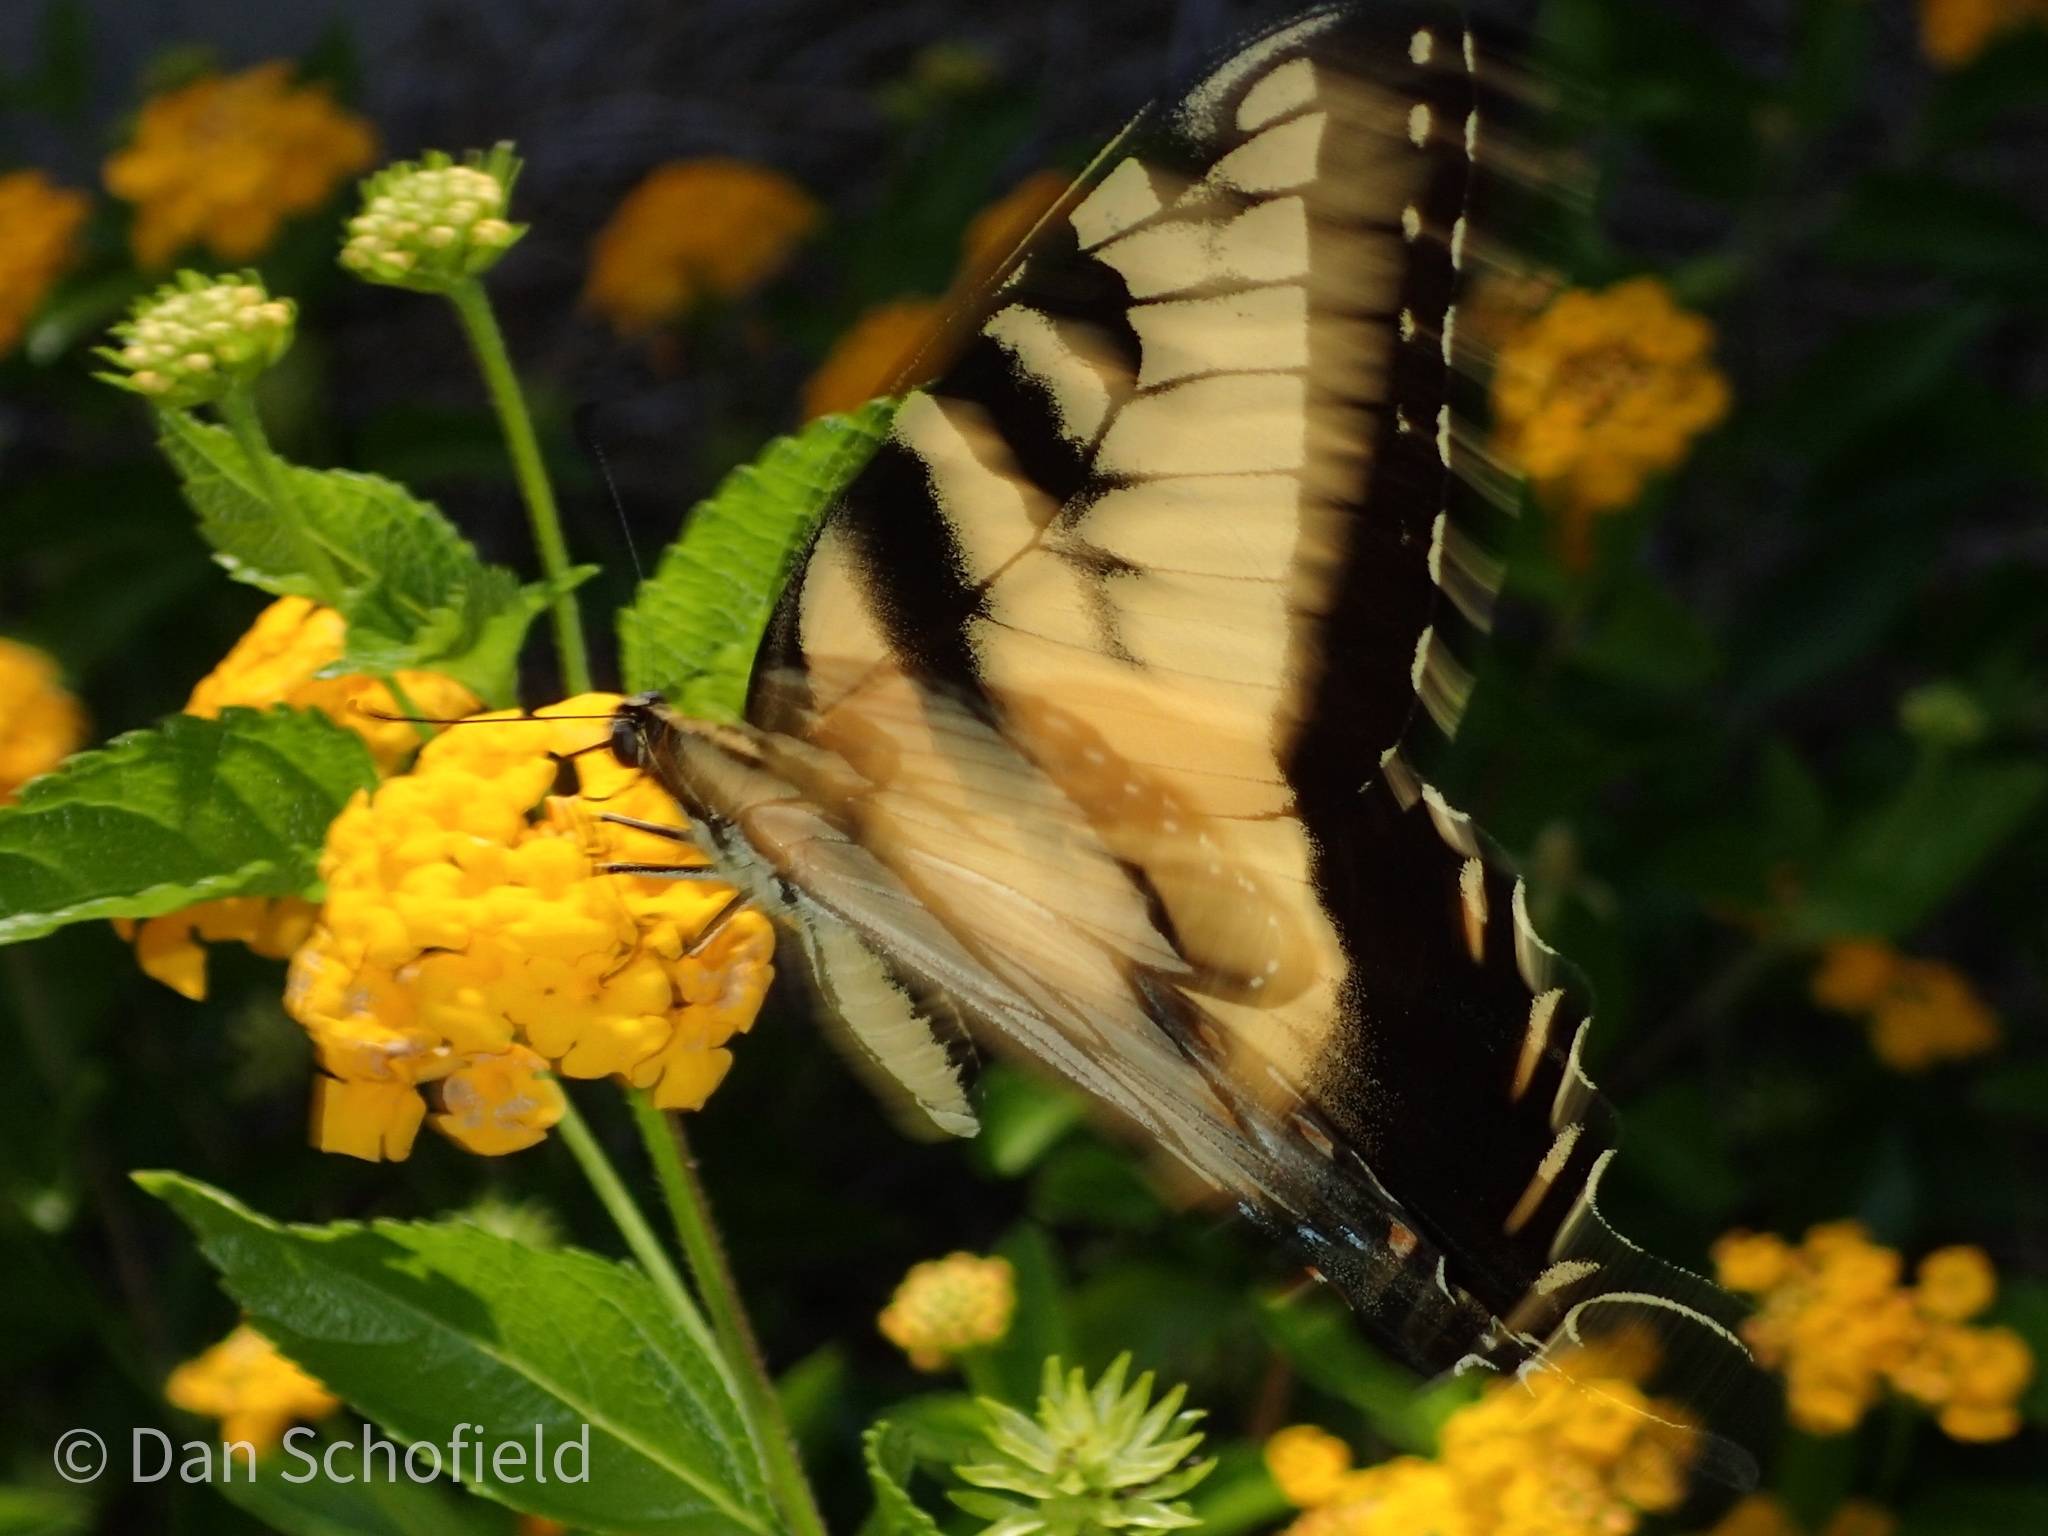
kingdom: Animalia
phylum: Arthropoda
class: Insecta
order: Lepidoptera
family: Papilionidae
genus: Papilio
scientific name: Papilio glaucus
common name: Tiger swallowtail
